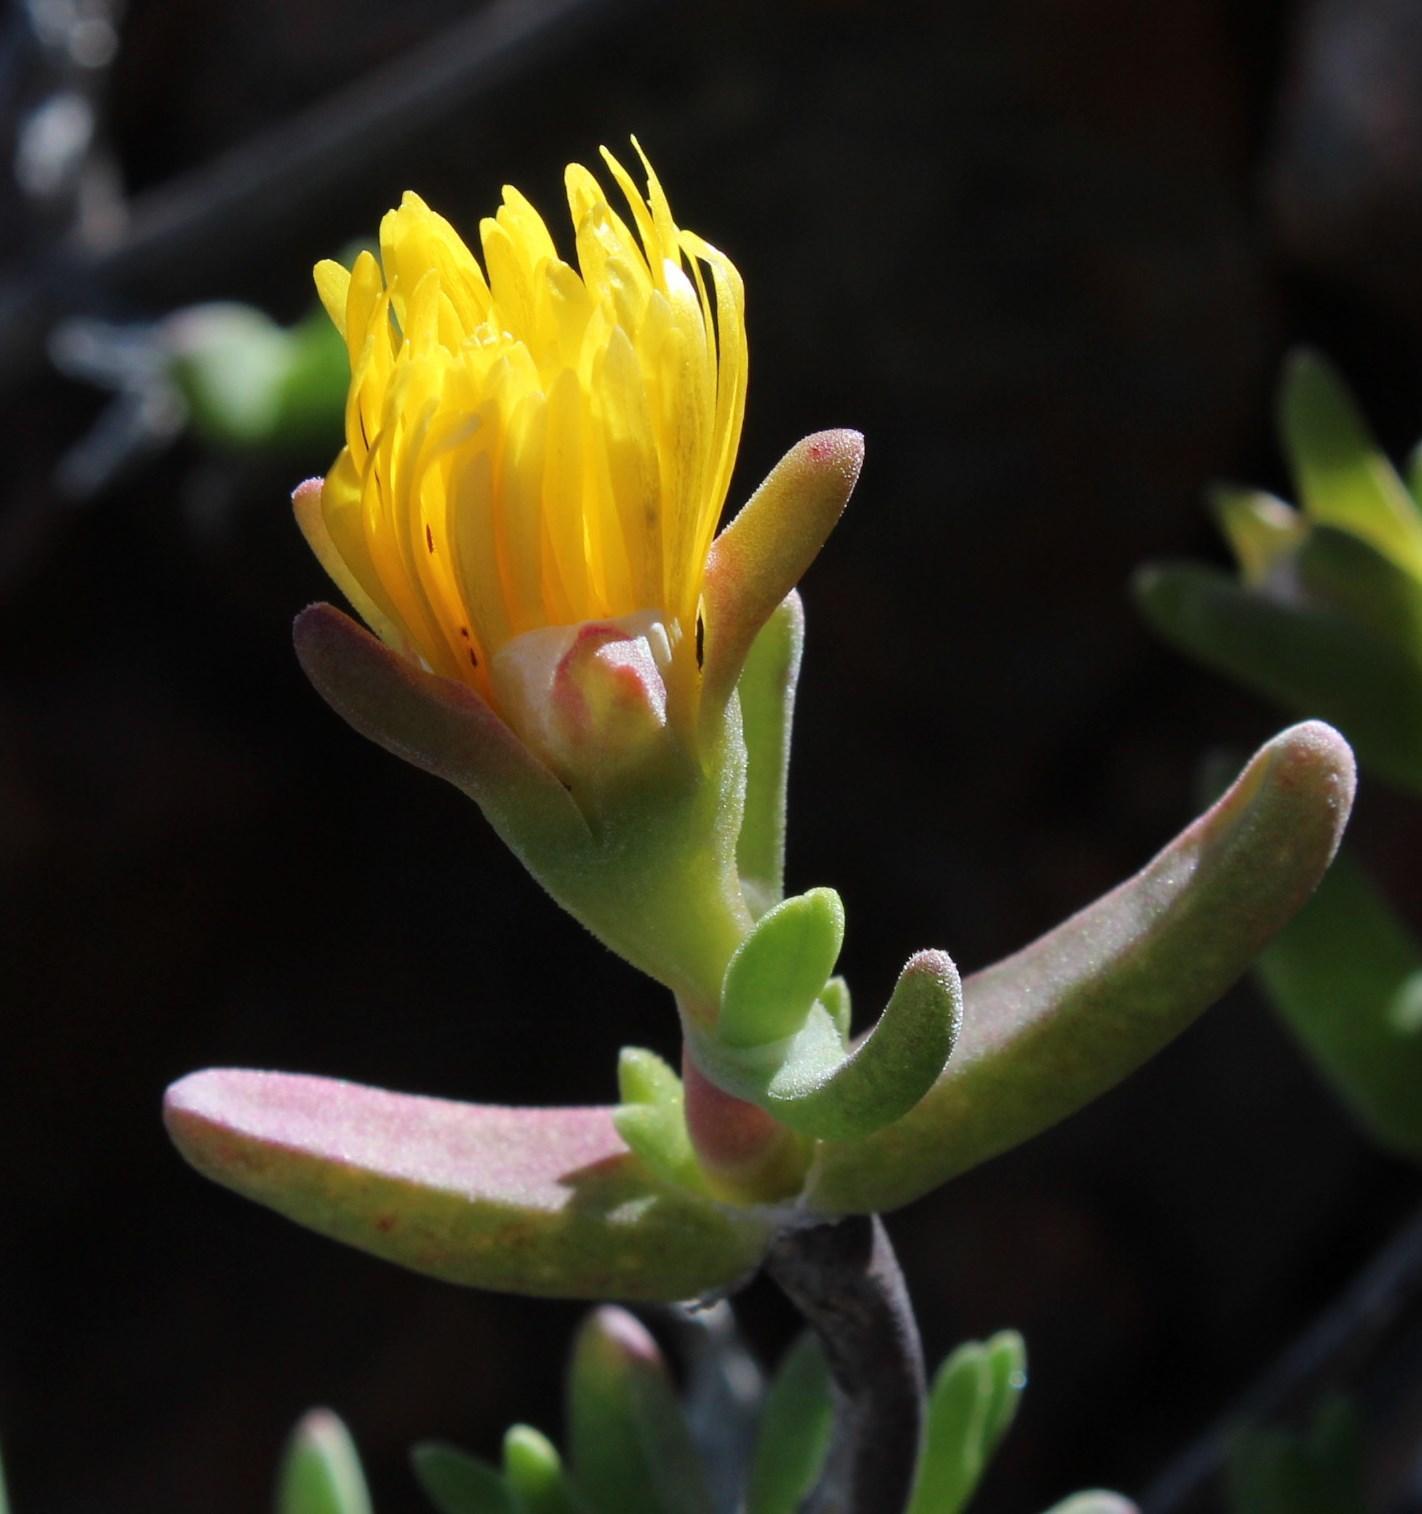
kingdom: Plantae
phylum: Tracheophyta
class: Magnoliopsida
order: Caryophyllales
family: Aizoaceae
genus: Mitrophyllum
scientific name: Mitrophyllum dissitum
